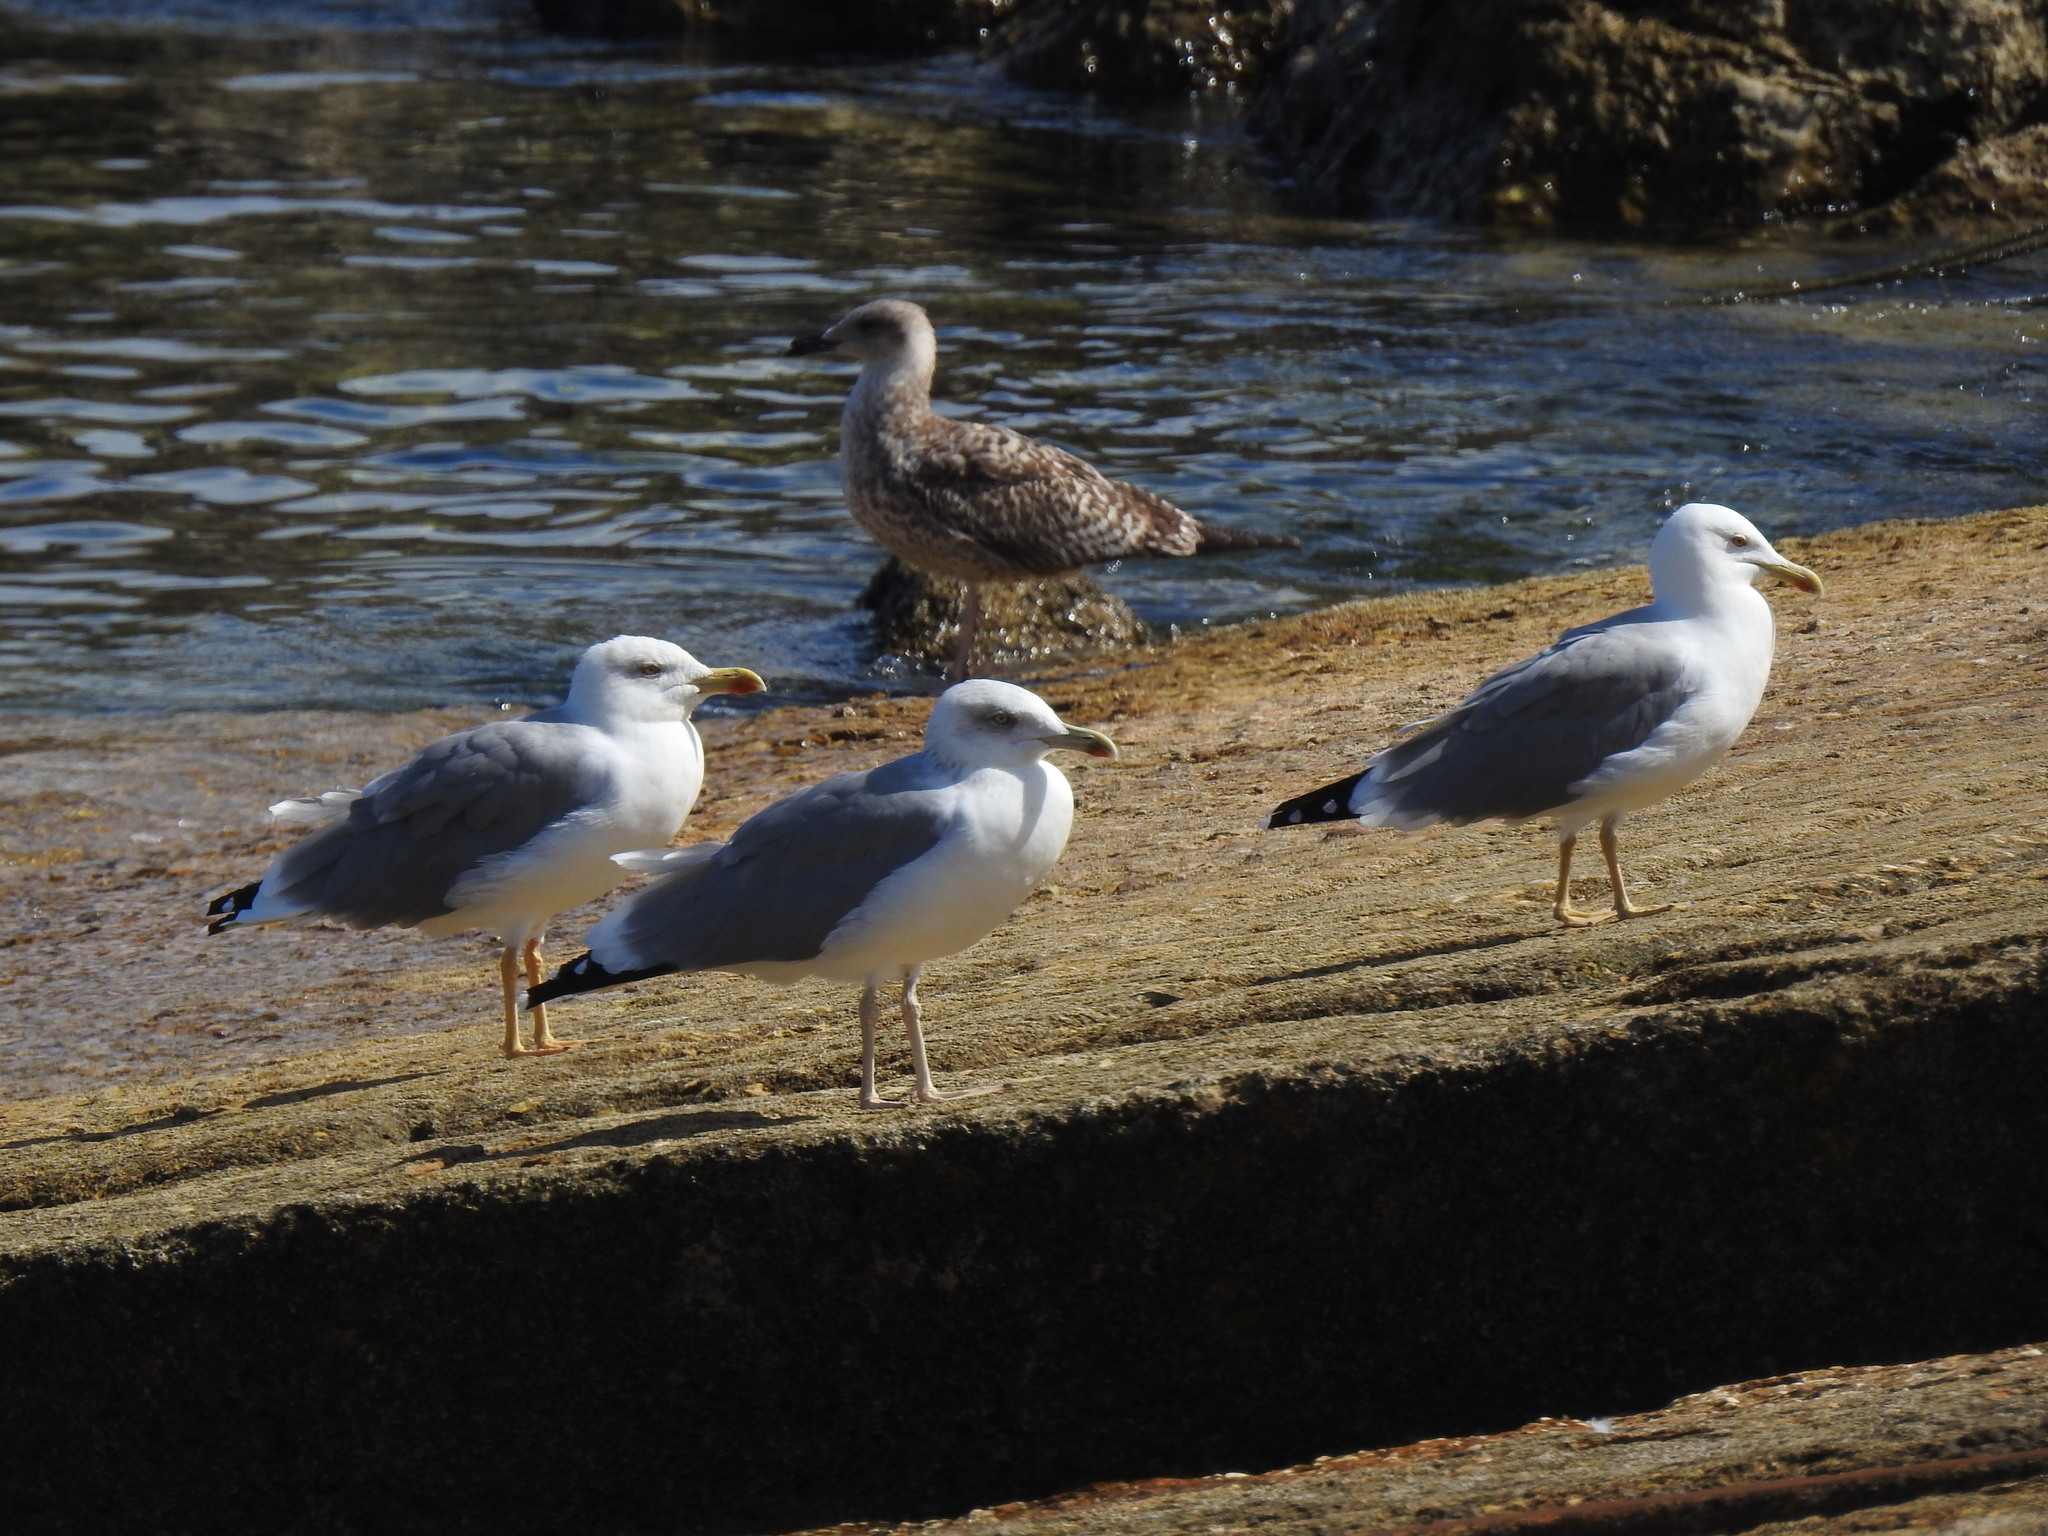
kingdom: Animalia
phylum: Chordata
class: Aves
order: Charadriiformes
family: Laridae
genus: Larus
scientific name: Larus michahellis
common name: Yellow-legged gull
